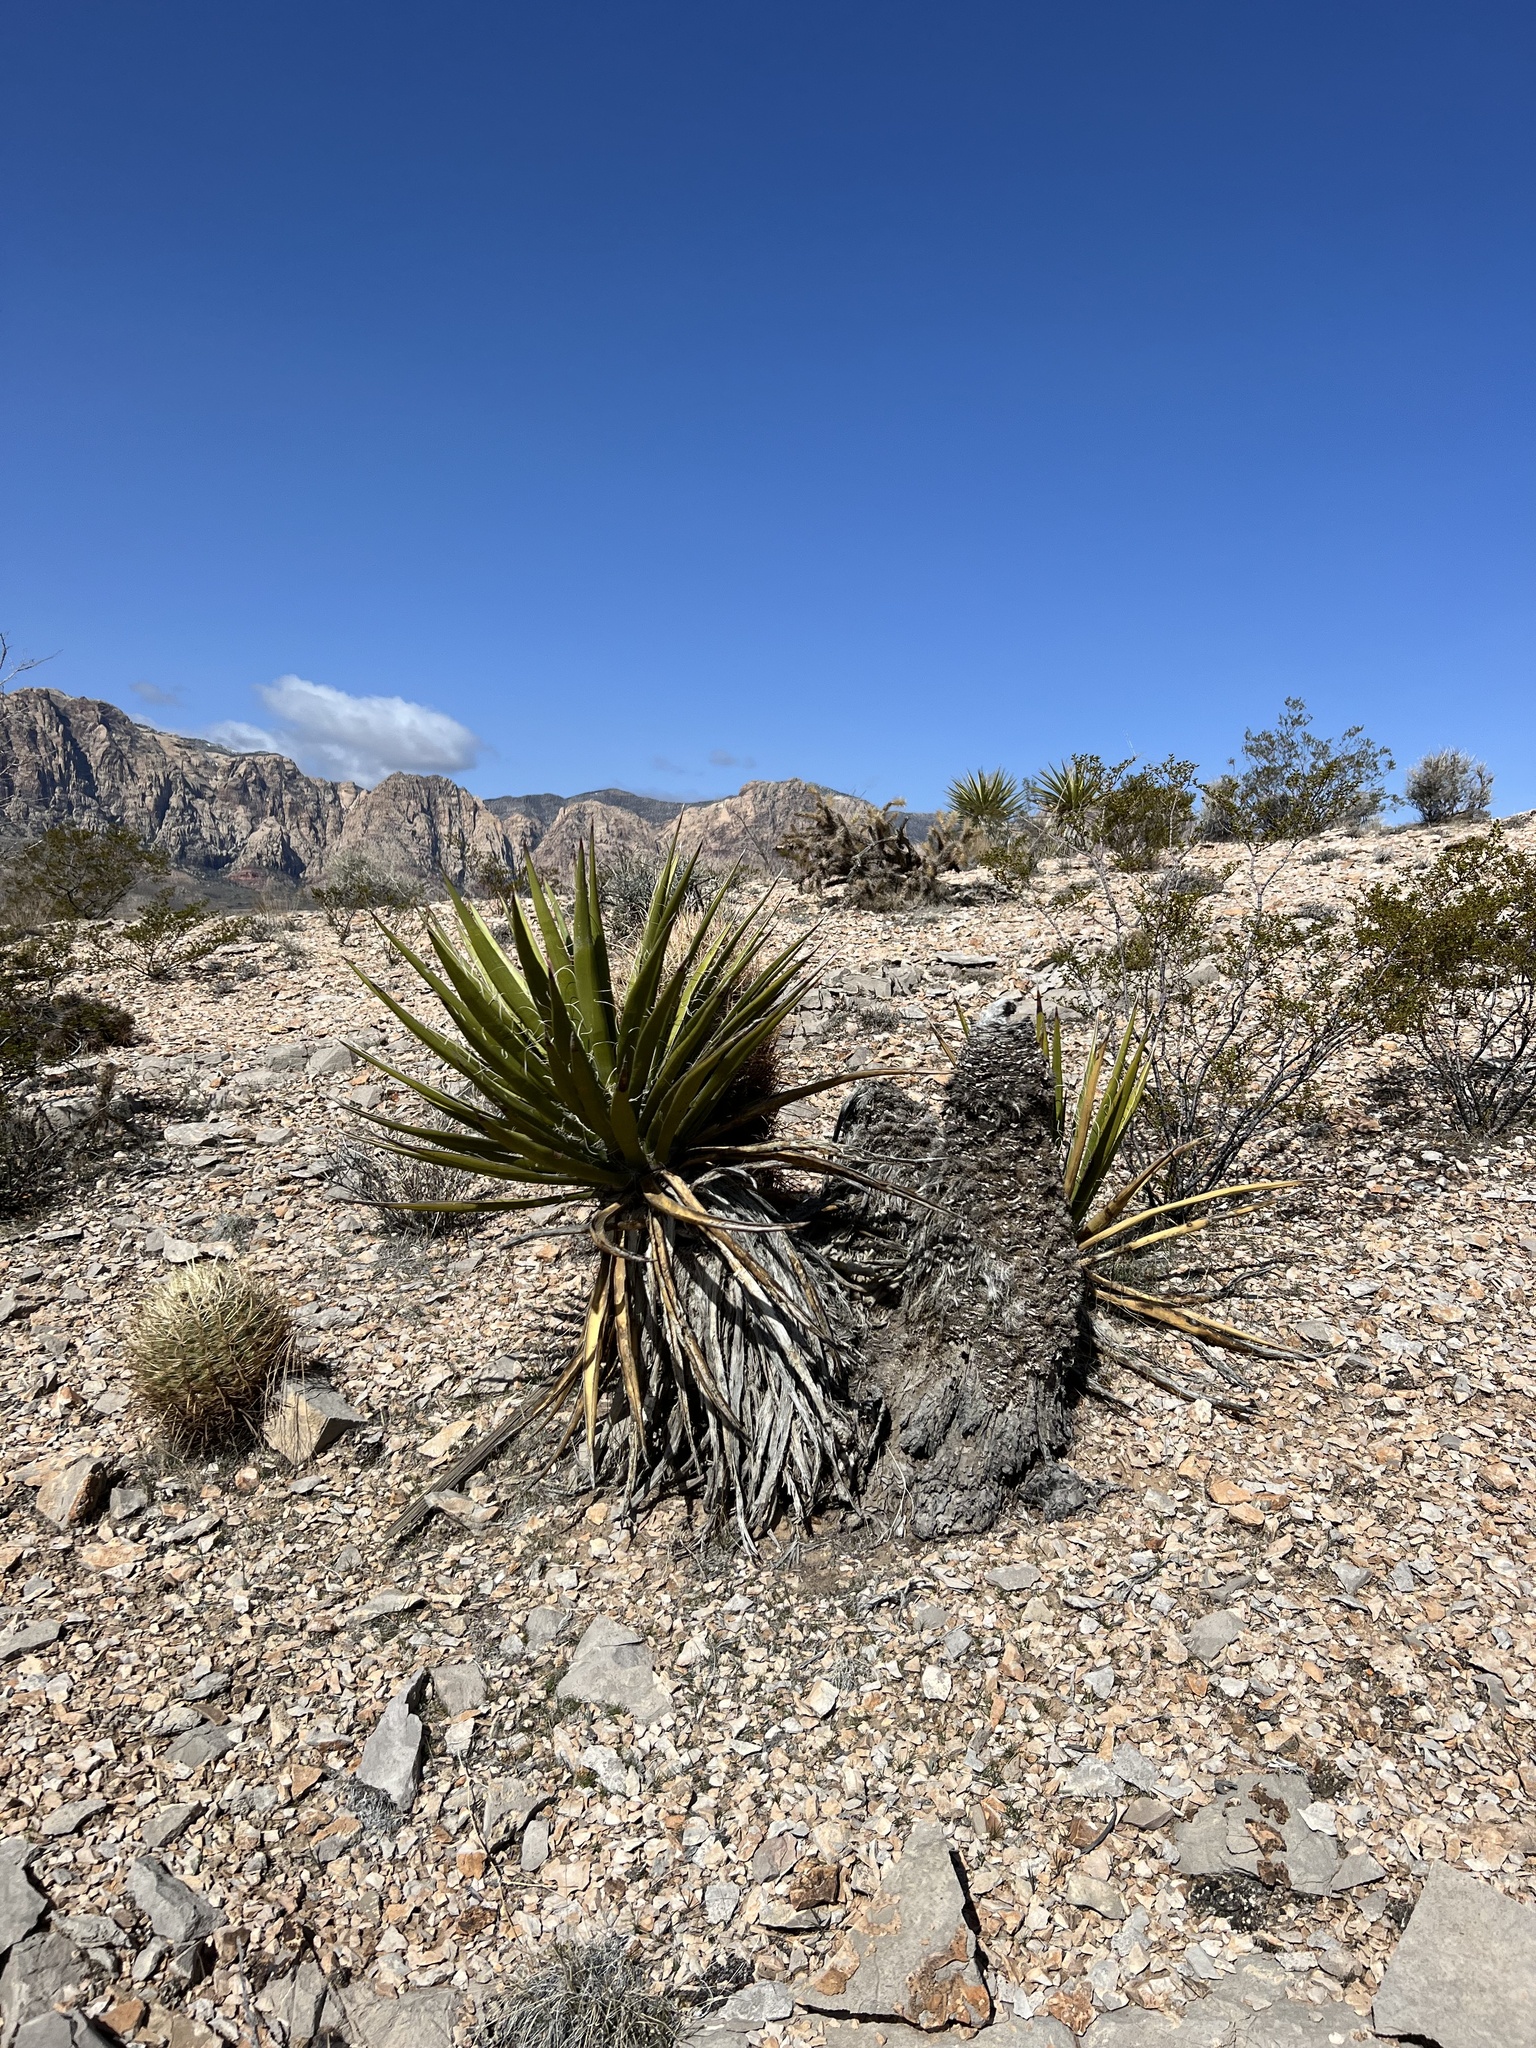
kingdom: Plantae
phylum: Tracheophyta
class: Liliopsida
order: Asparagales
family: Asparagaceae
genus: Yucca
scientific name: Yucca schidigera
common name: Mojave yucca
